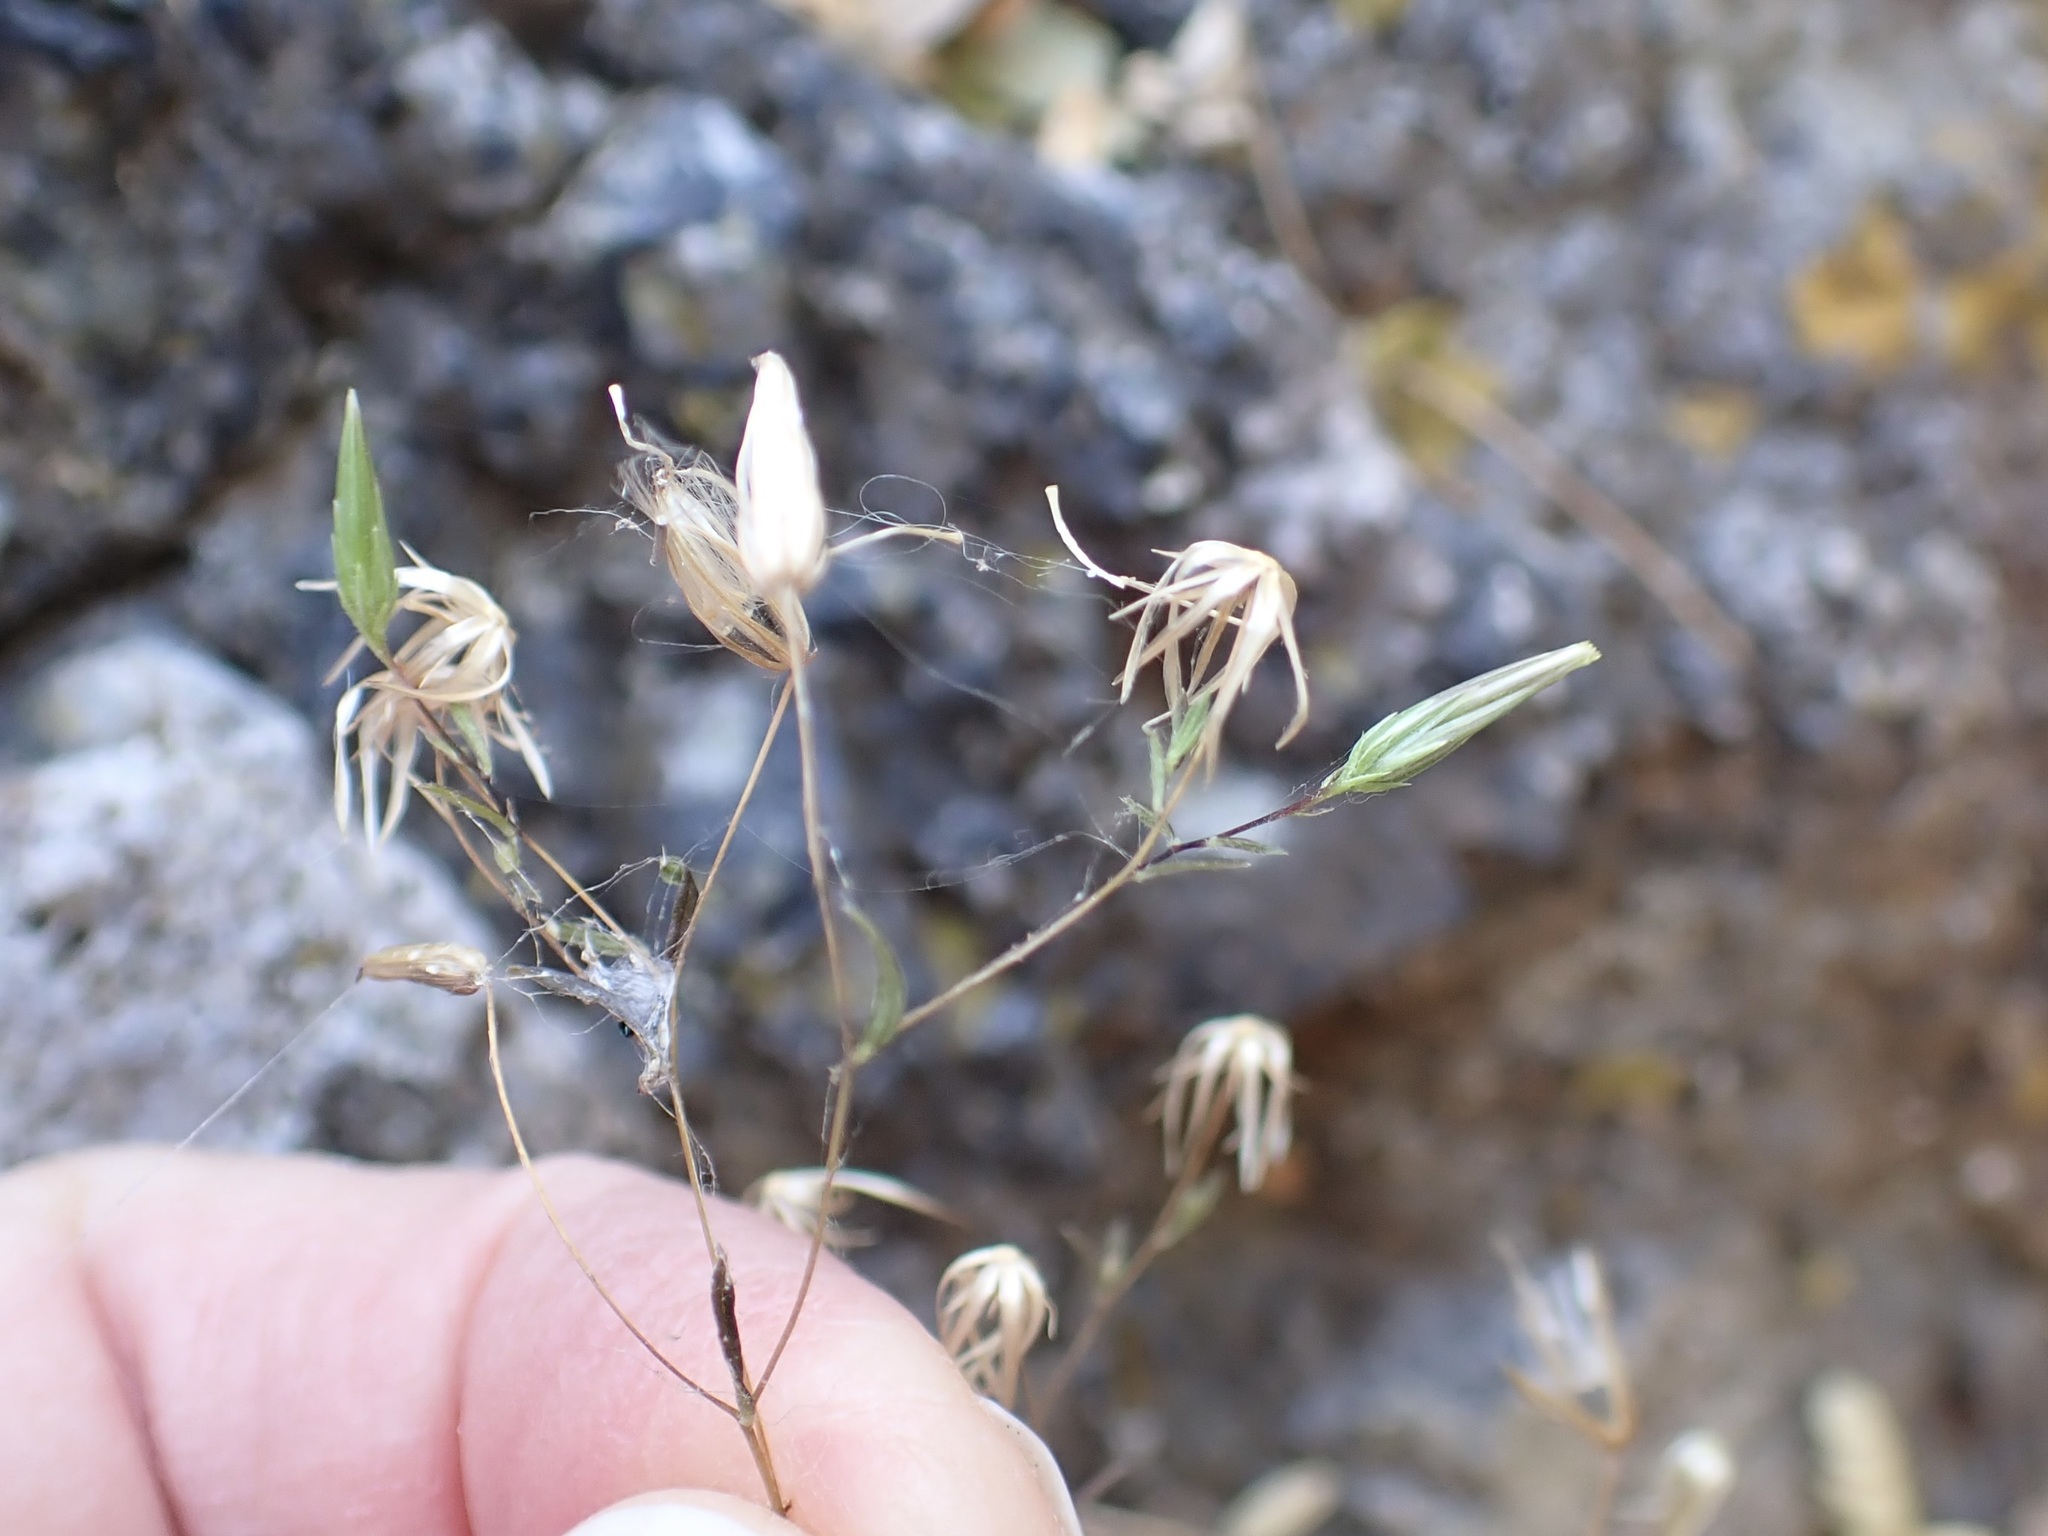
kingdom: Plantae
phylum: Tracheophyta
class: Magnoliopsida
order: Asterales
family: Asteraceae
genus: Brickellia
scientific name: Brickellia diffusa
